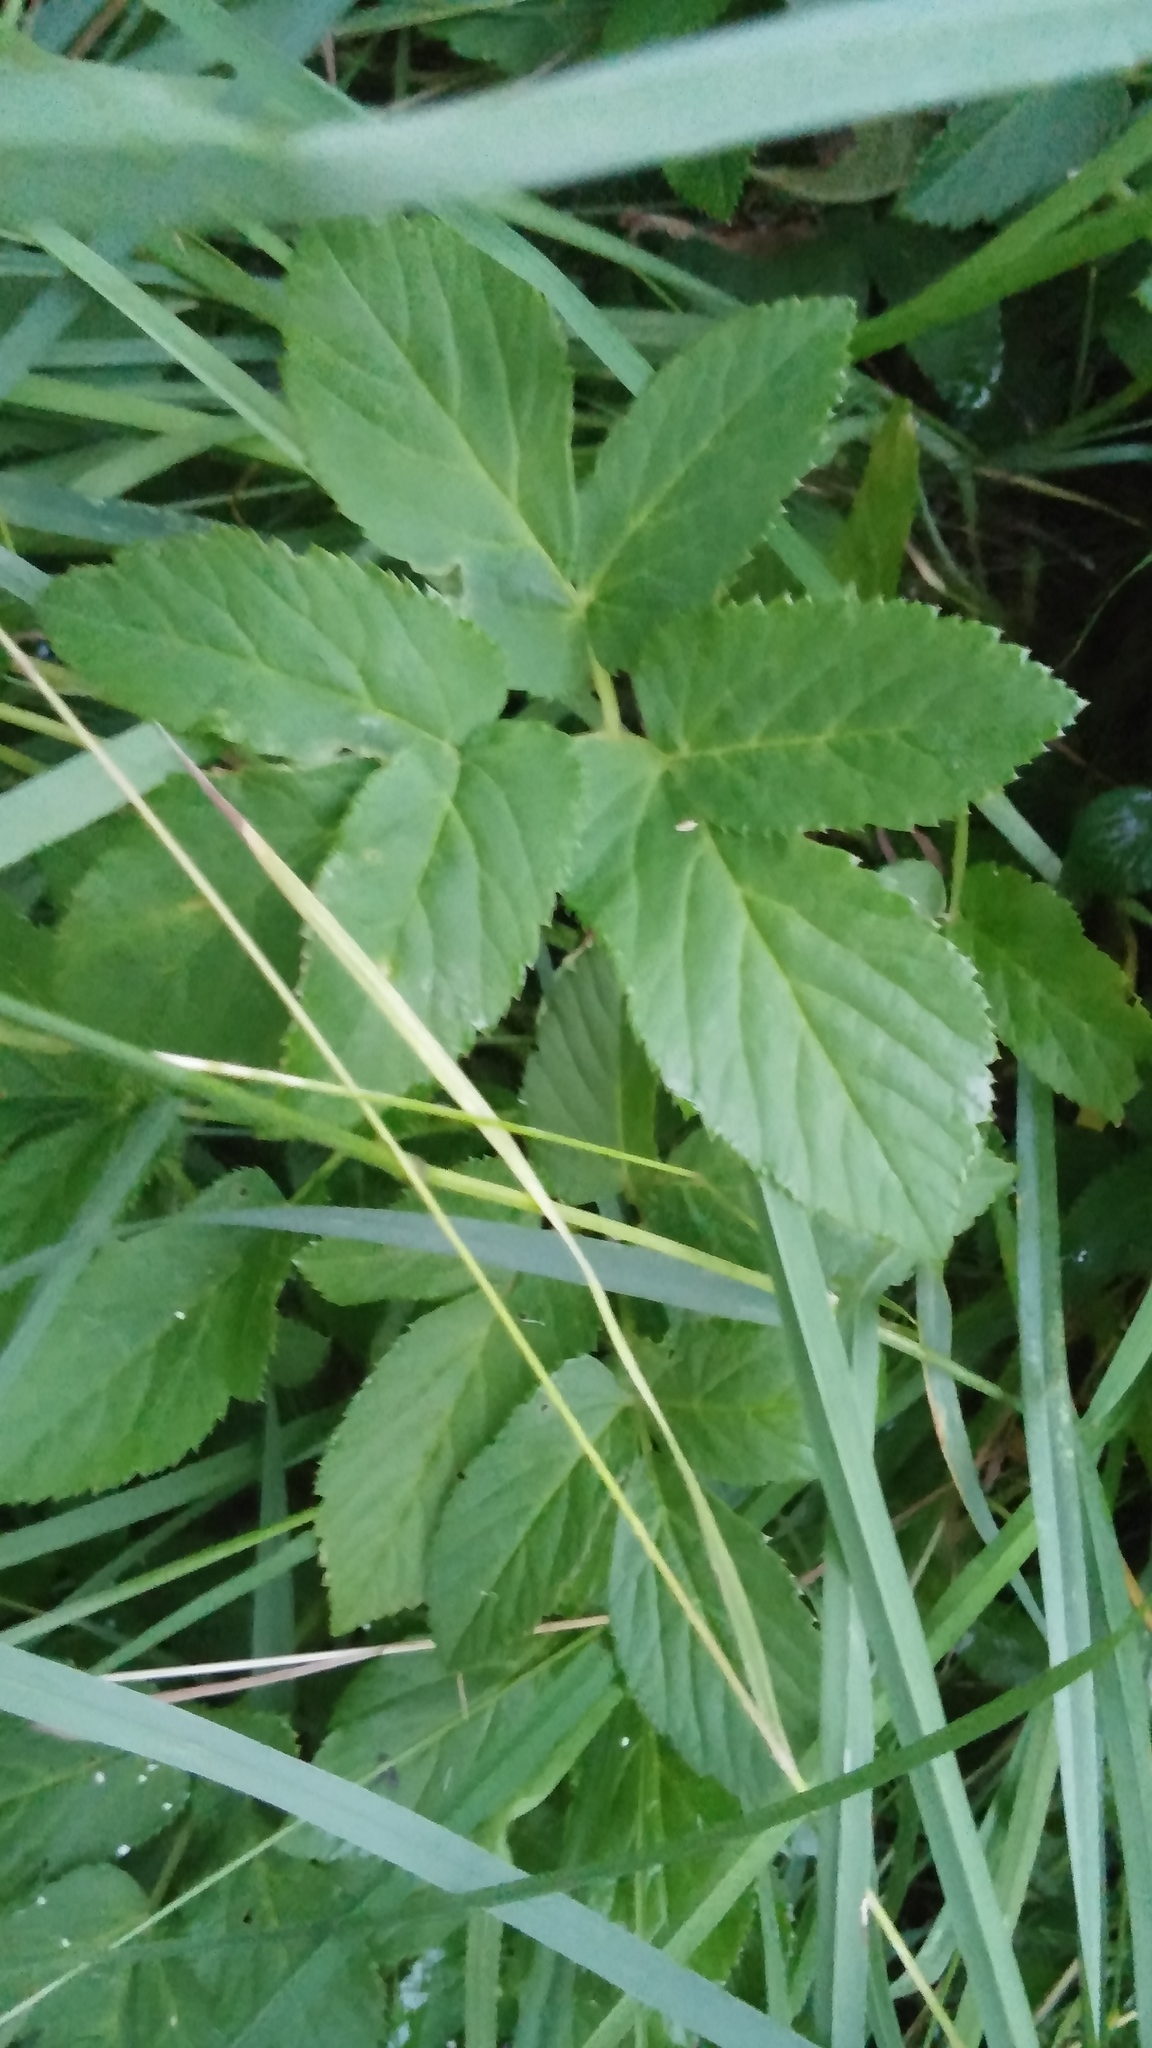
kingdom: Plantae
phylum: Tracheophyta
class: Magnoliopsida
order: Apiales
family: Apiaceae
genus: Aegopodium
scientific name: Aegopodium podagraria
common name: Ground-elder
